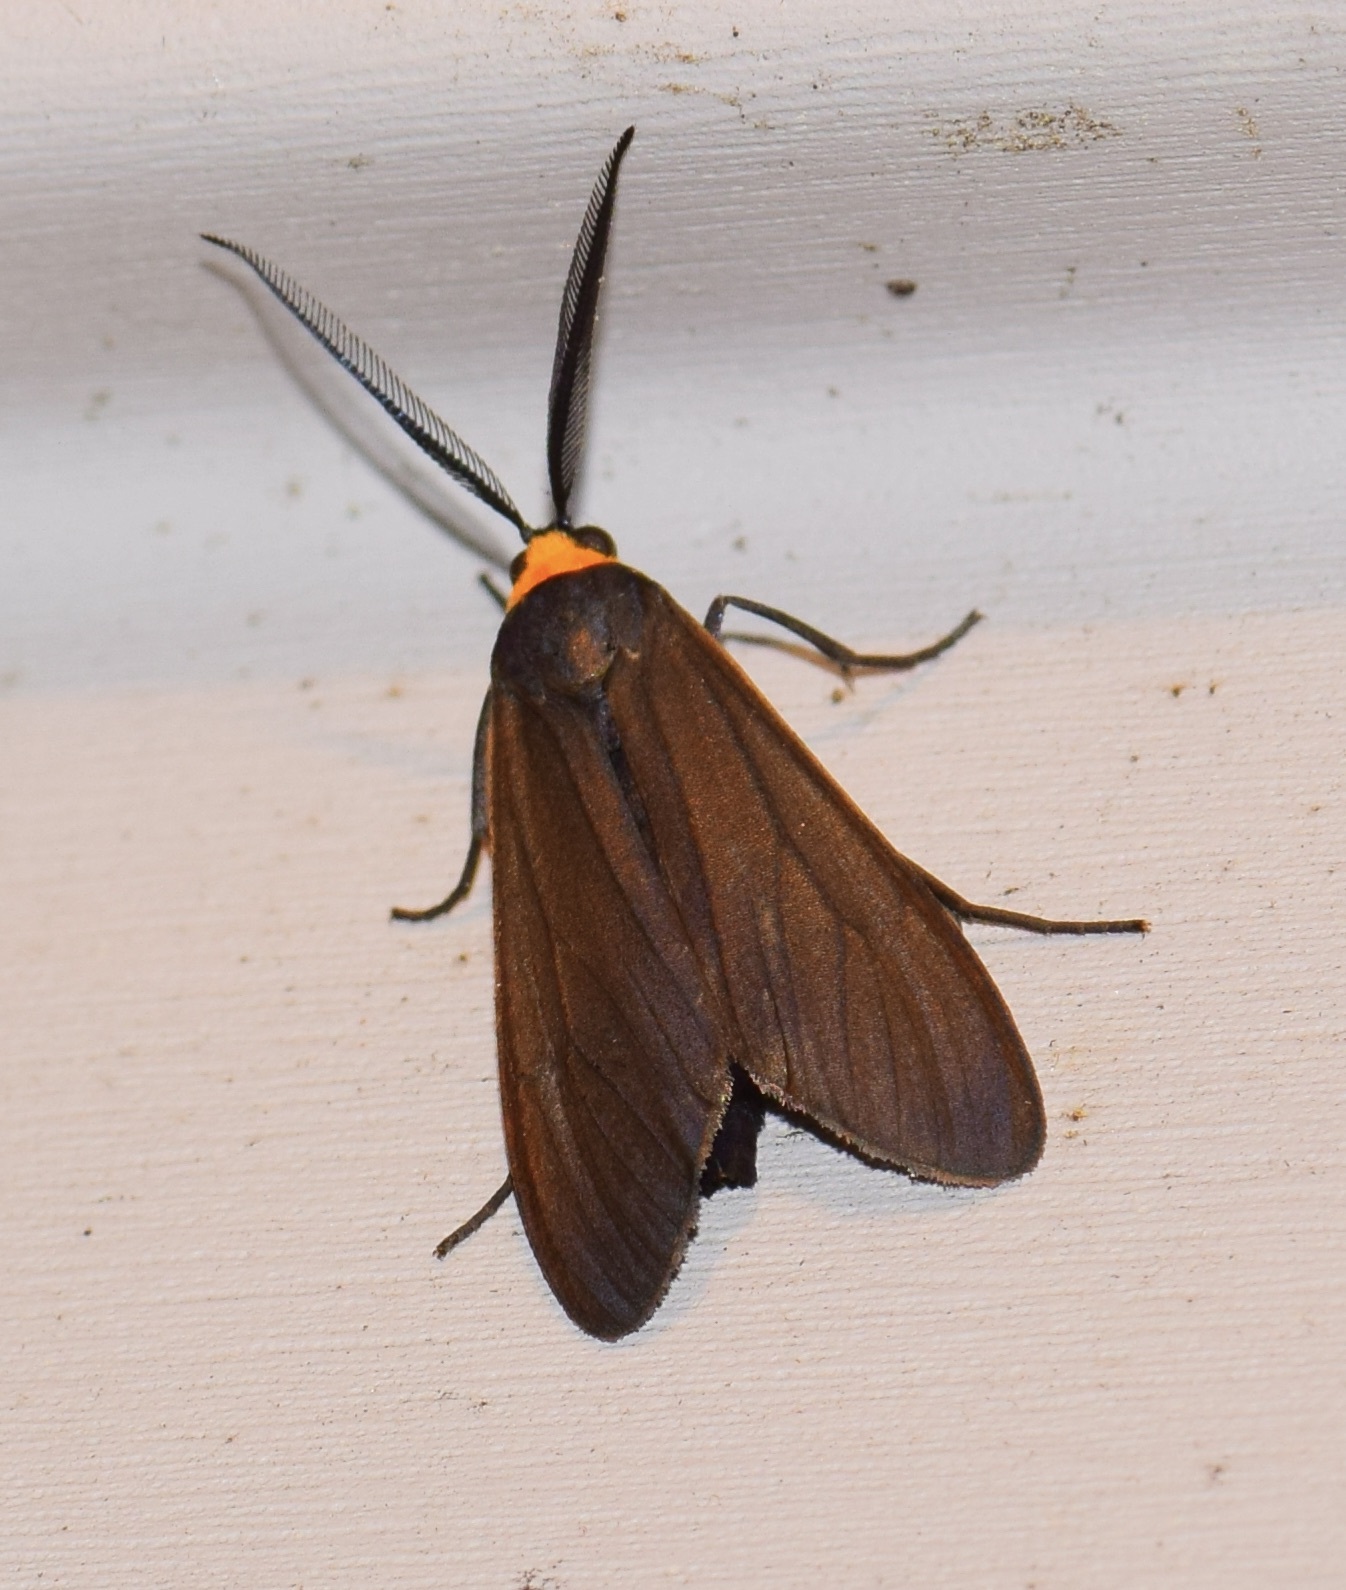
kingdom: Animalia
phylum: Arthropoda
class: Insecta
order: Lepidoptera
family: Erebidae
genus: Cisseps
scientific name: Cisseps fulvicollis
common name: Yellow-collared scape moth
